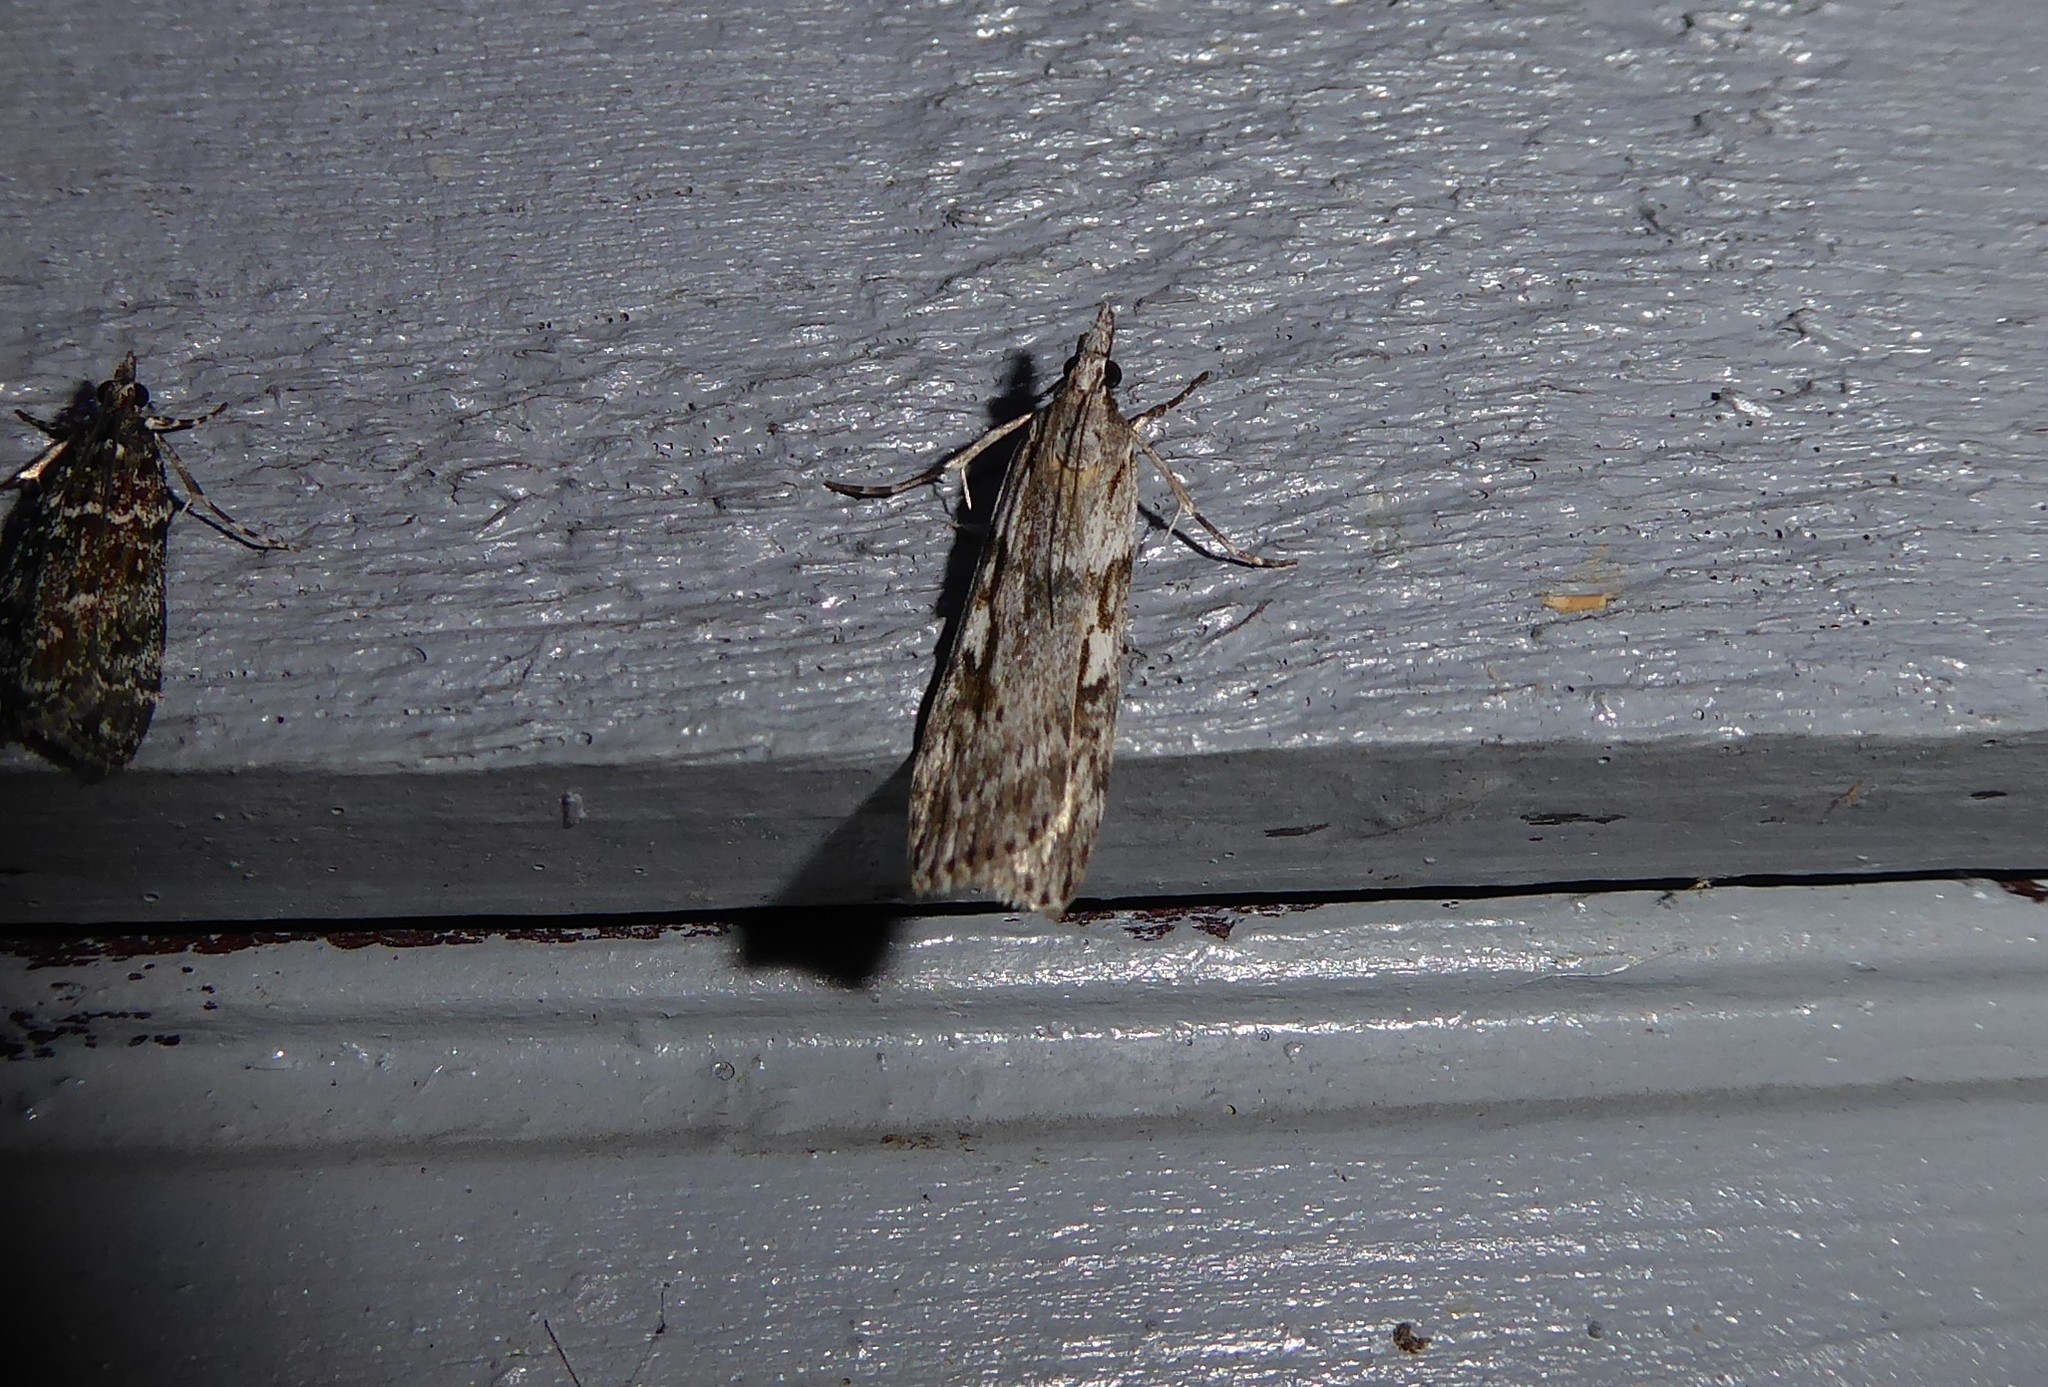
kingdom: Animalia
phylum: Arthropoda
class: Insecta
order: Lepidoptera
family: Crambidae
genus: Scoparia
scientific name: Scoparia halopis
